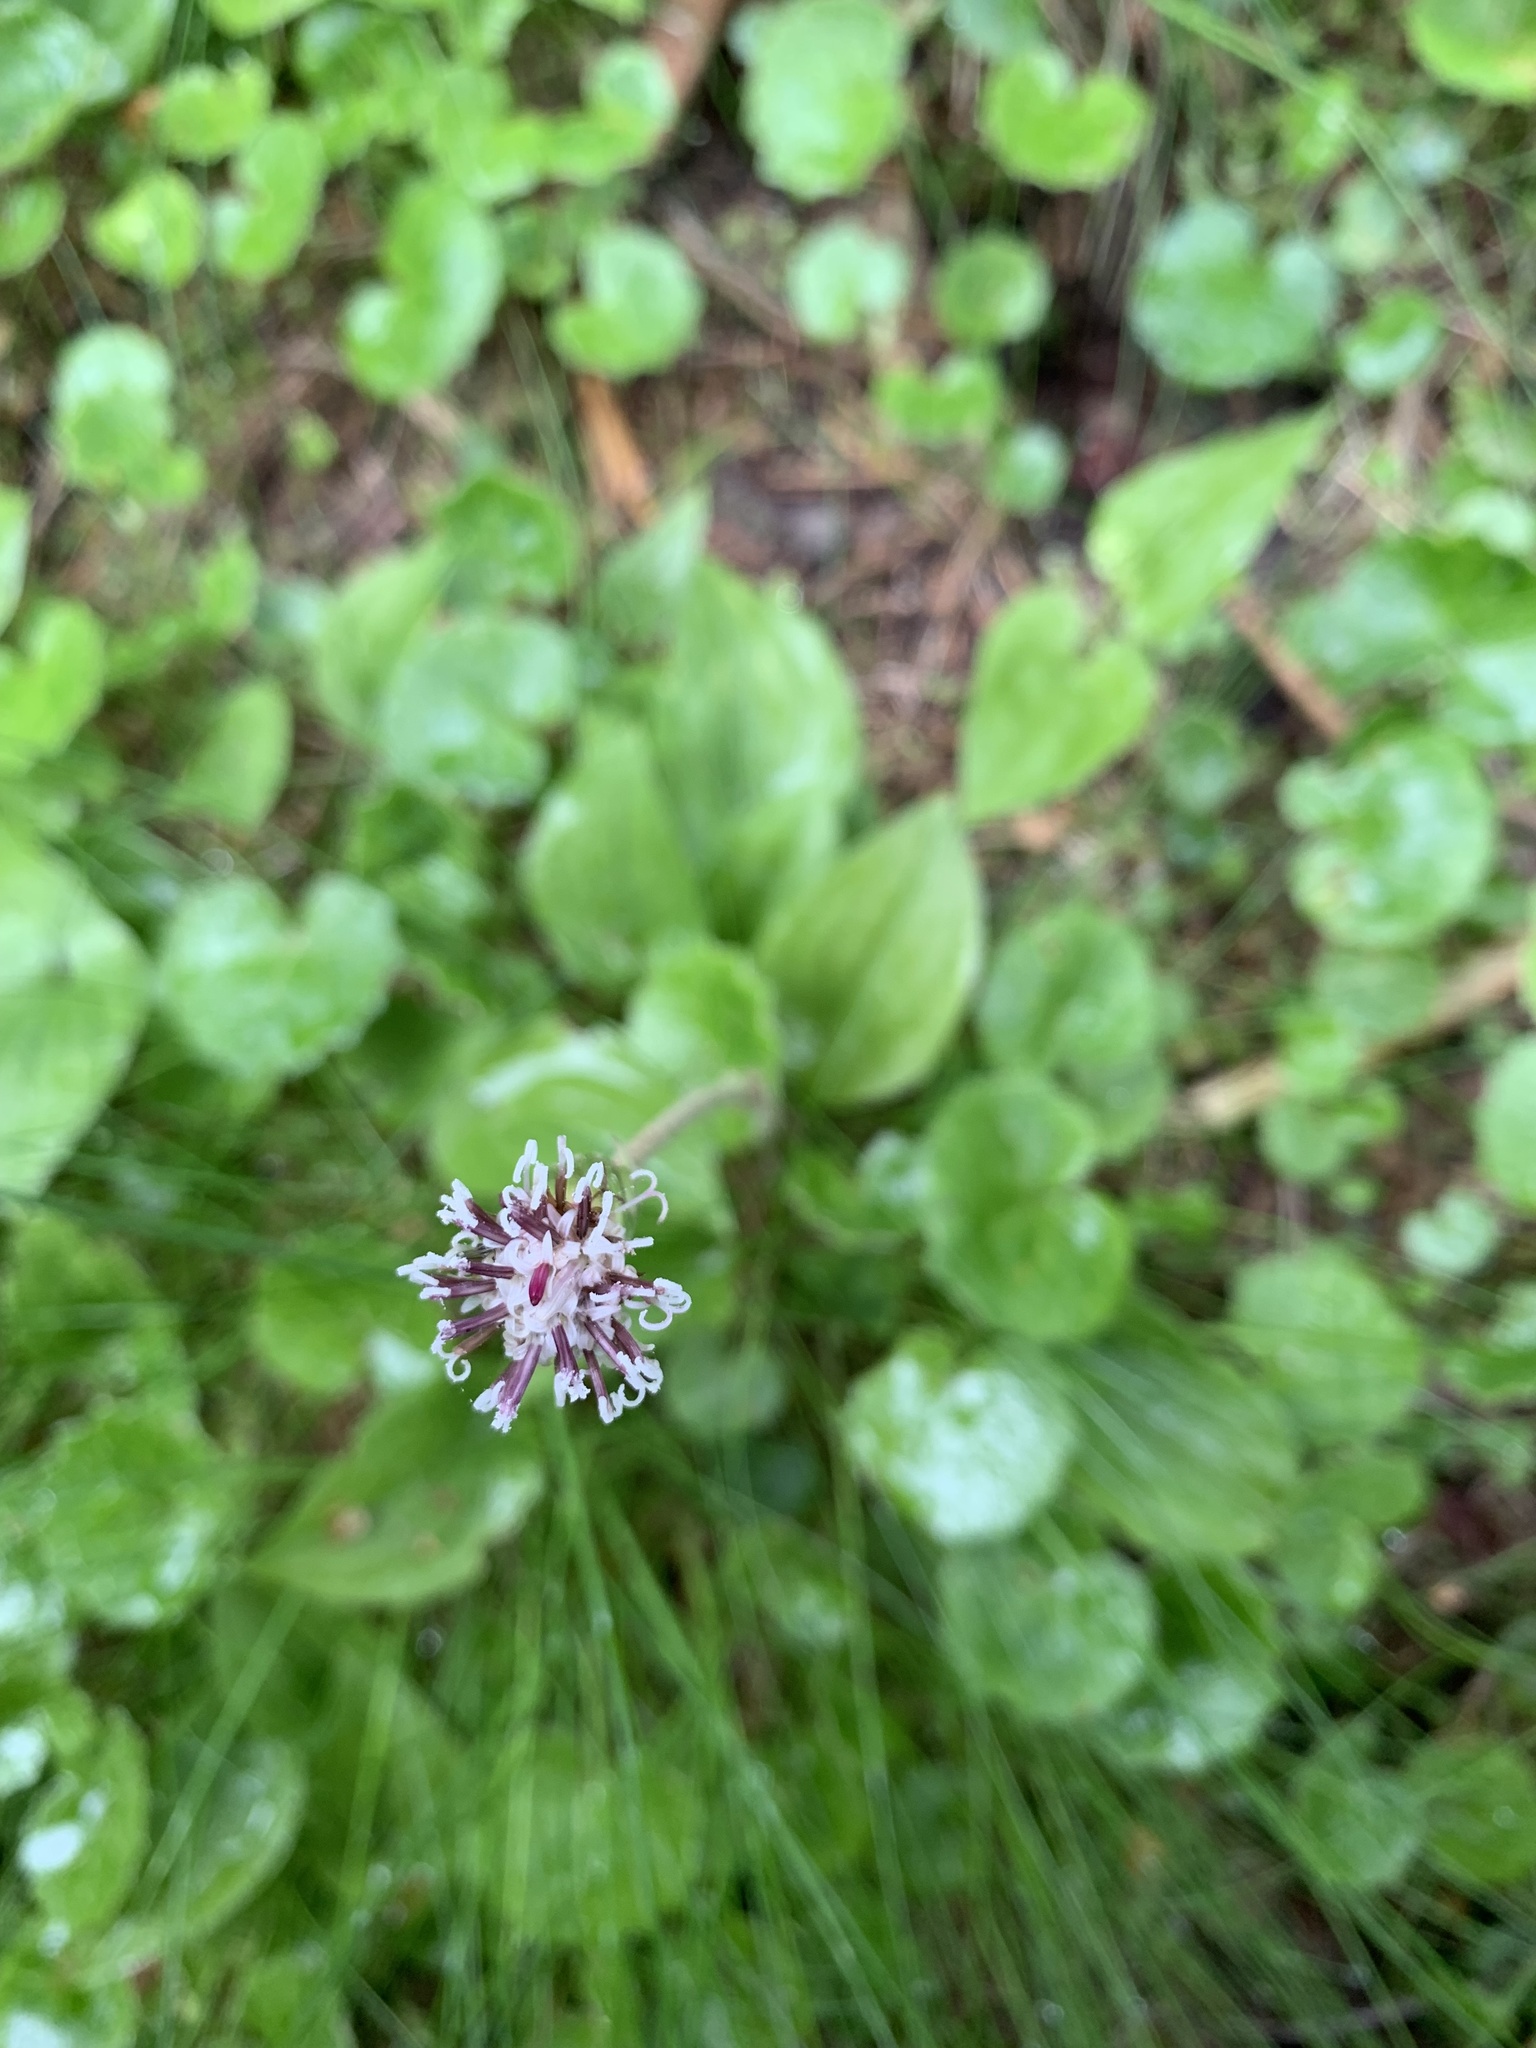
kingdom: Plantae
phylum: Tracheophyta
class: Magnoliopsida
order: Asterales
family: Asteraceae
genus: Homogyne
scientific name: Homogyne alpina
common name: Purple colt's-foot
